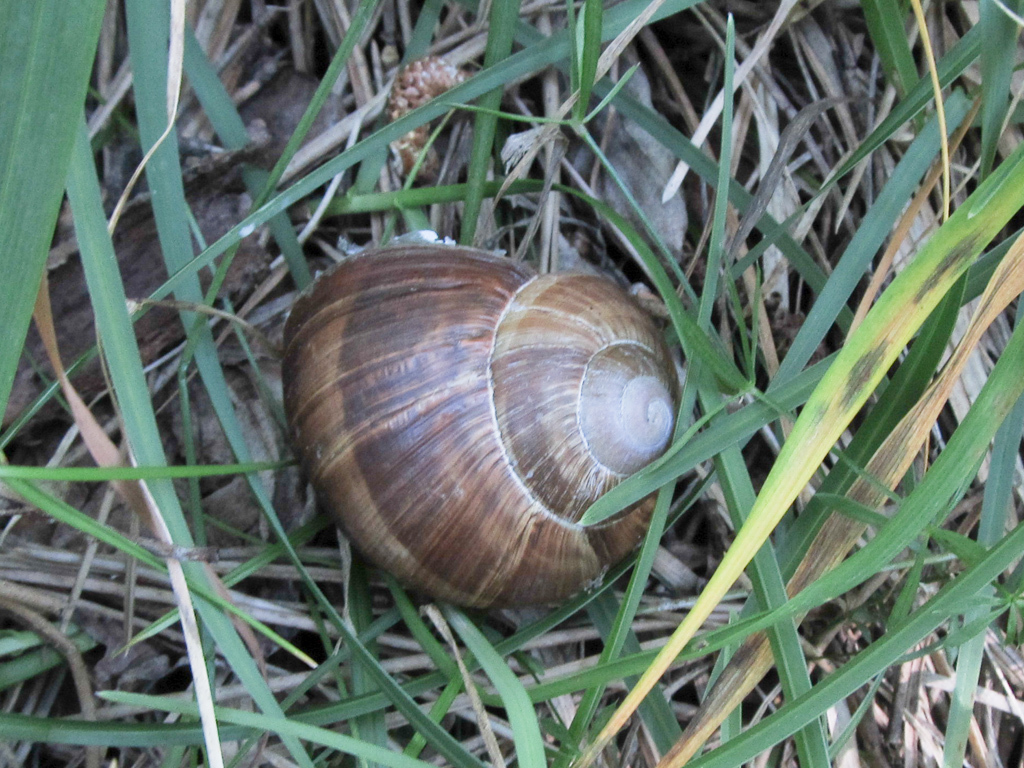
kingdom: Animalia
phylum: Mollusca
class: Gastropoda
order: Stylommatophora
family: Helicidae
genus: Helix
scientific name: Helix pomatia
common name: Roman snail
